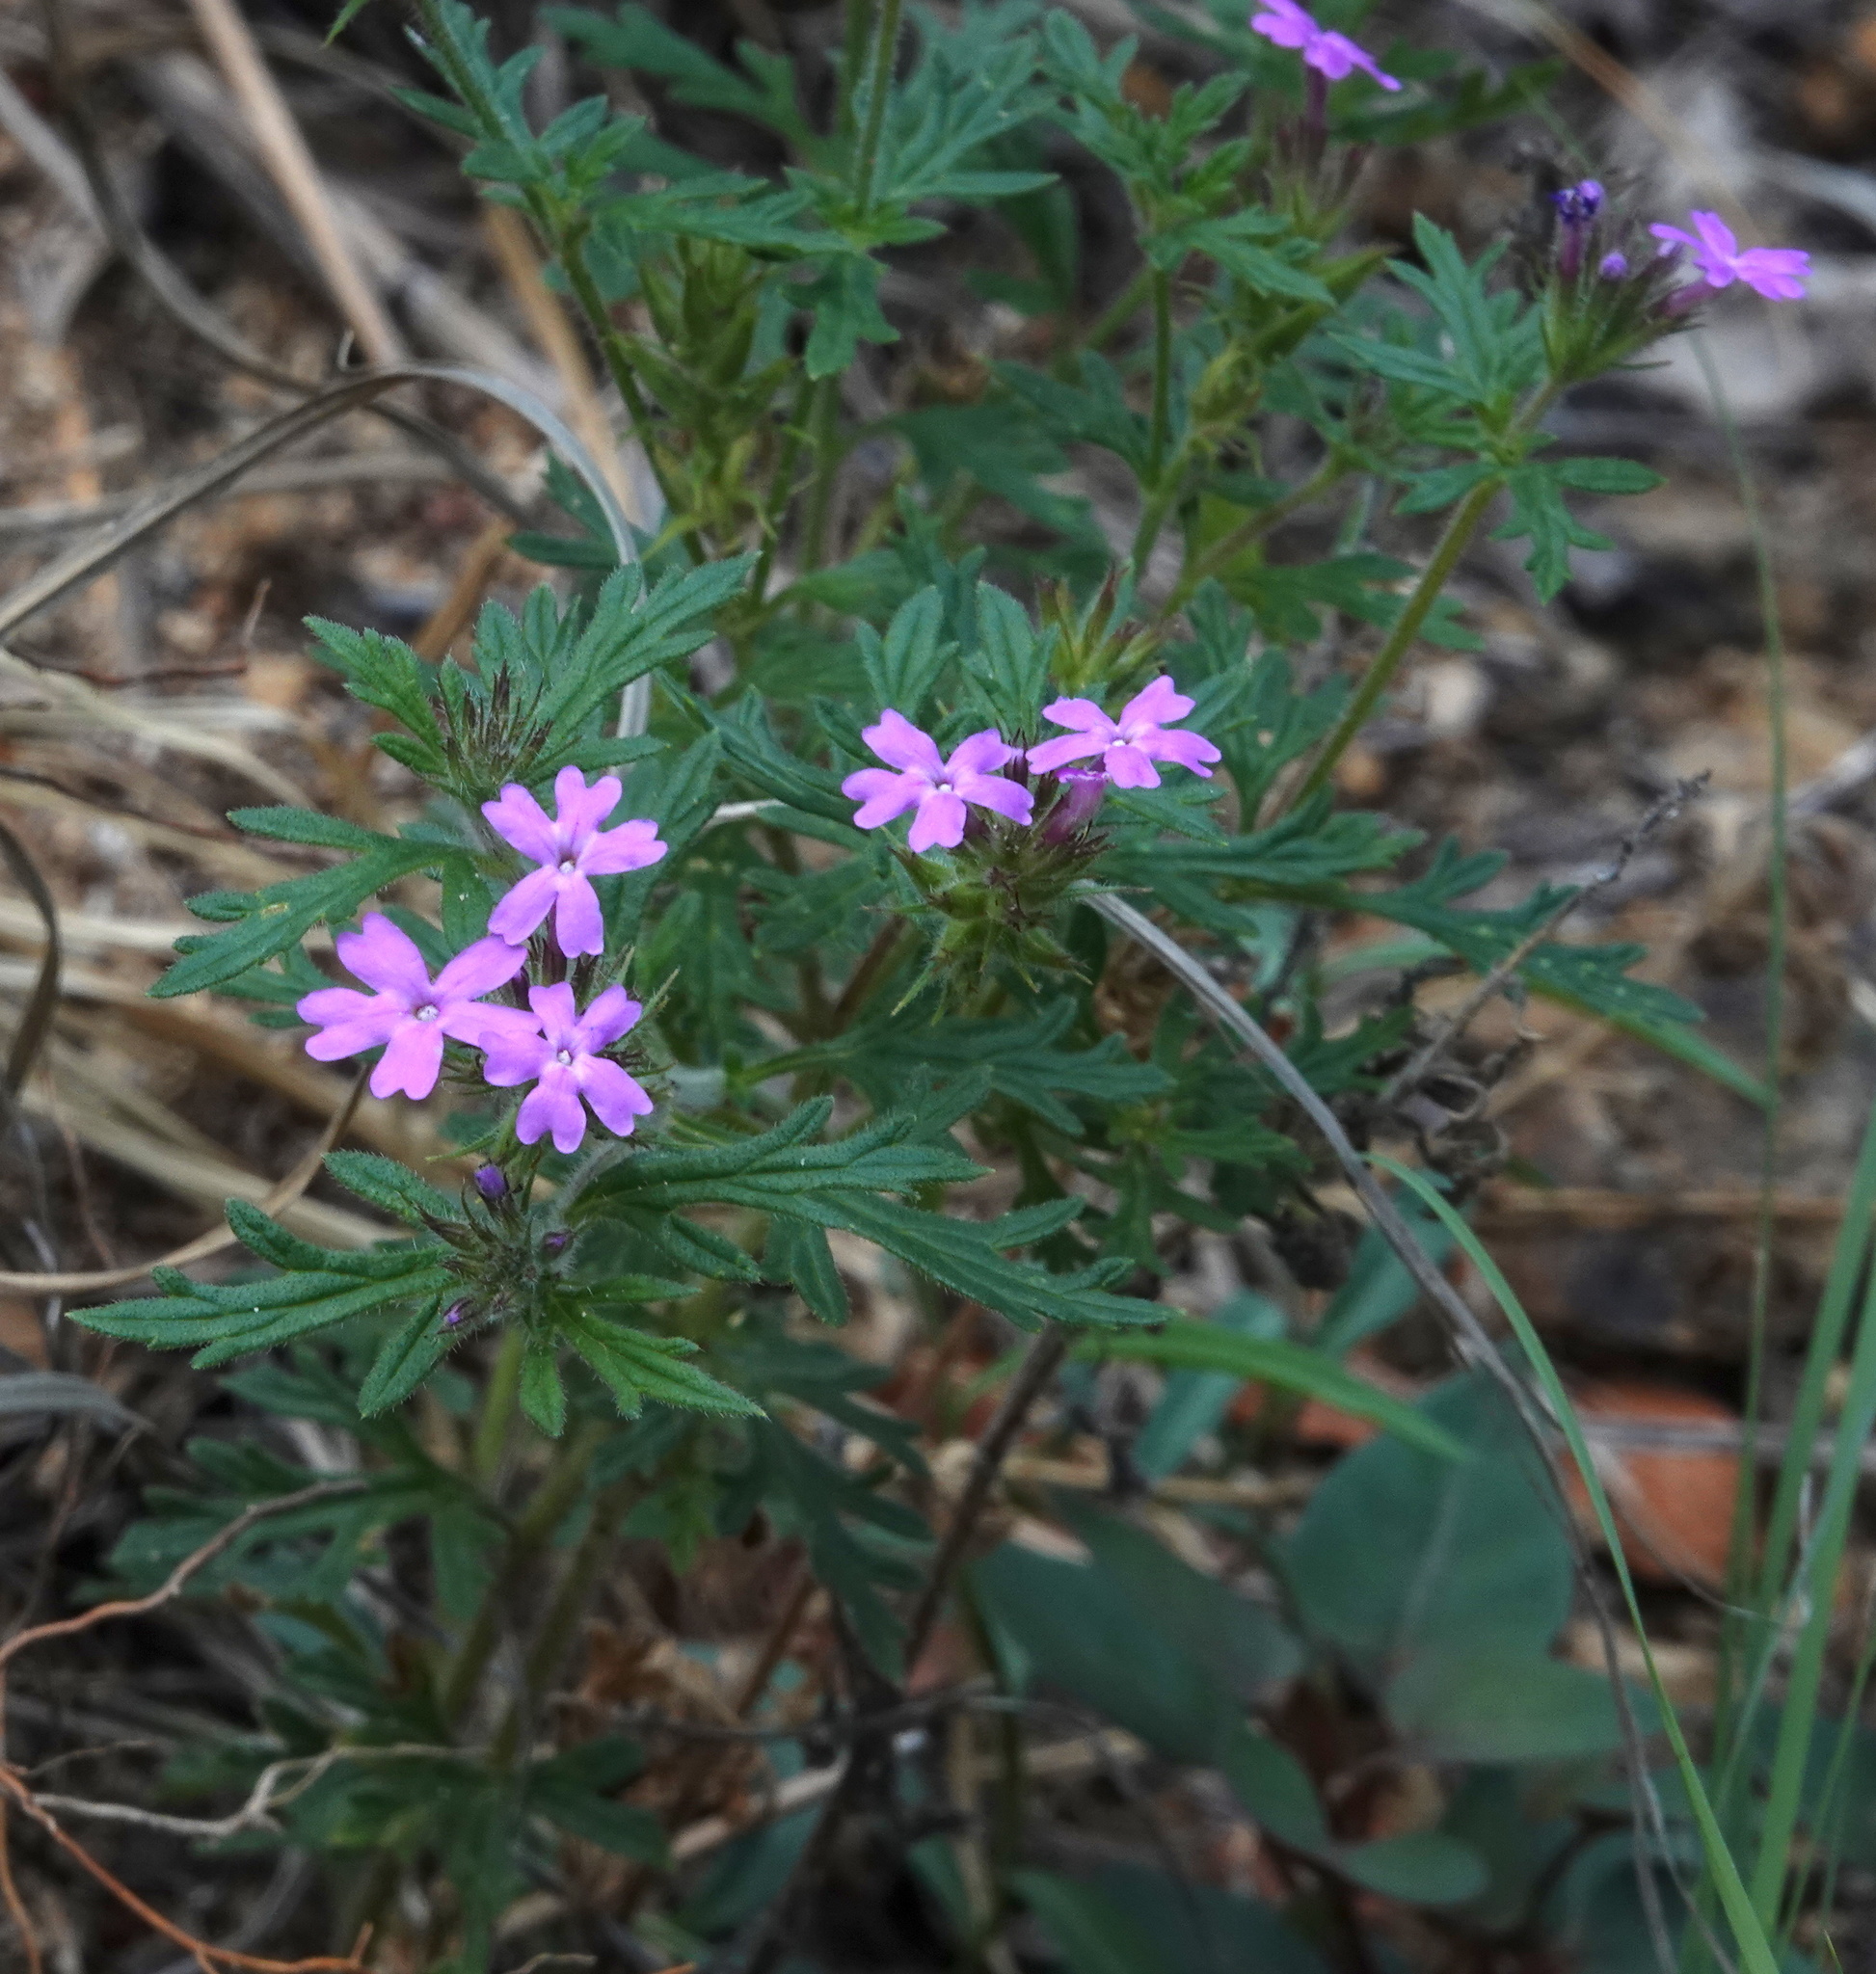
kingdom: Plantae
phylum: Tracheophyta
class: Magnoliopsida
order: Lamiales
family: Verbenaceae
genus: Verbena
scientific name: Verbena chiricahensis
